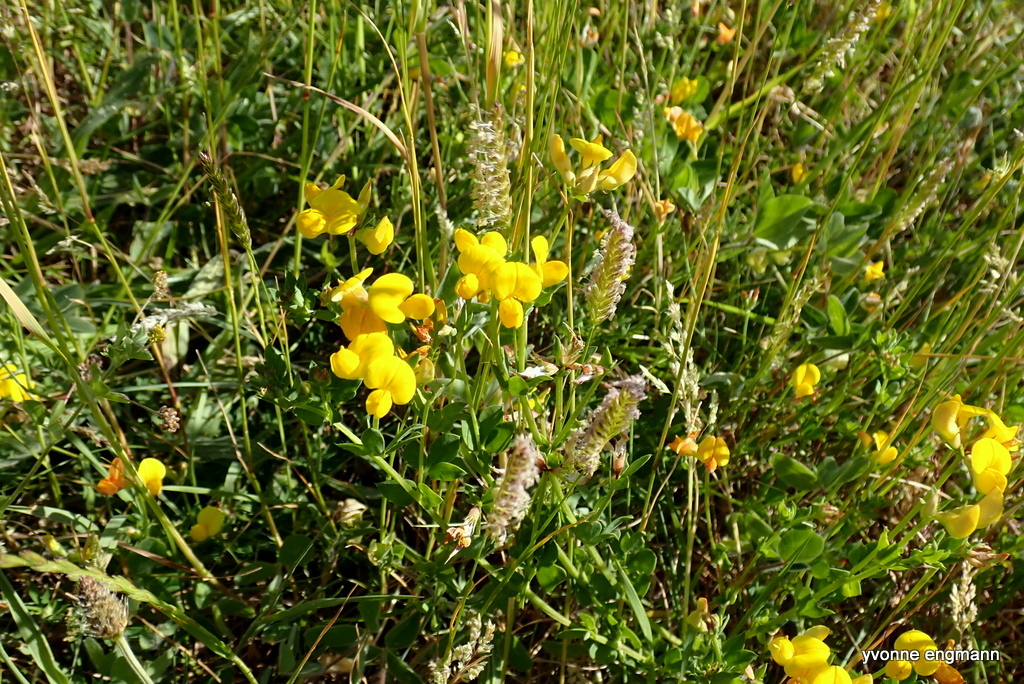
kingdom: Plantae
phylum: Tracheophyta
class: Magnoliopsida
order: Fabales
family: Fabaceae
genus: Lotus
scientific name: Lotus corniculatus
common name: Common bird's-foot-trefoil
